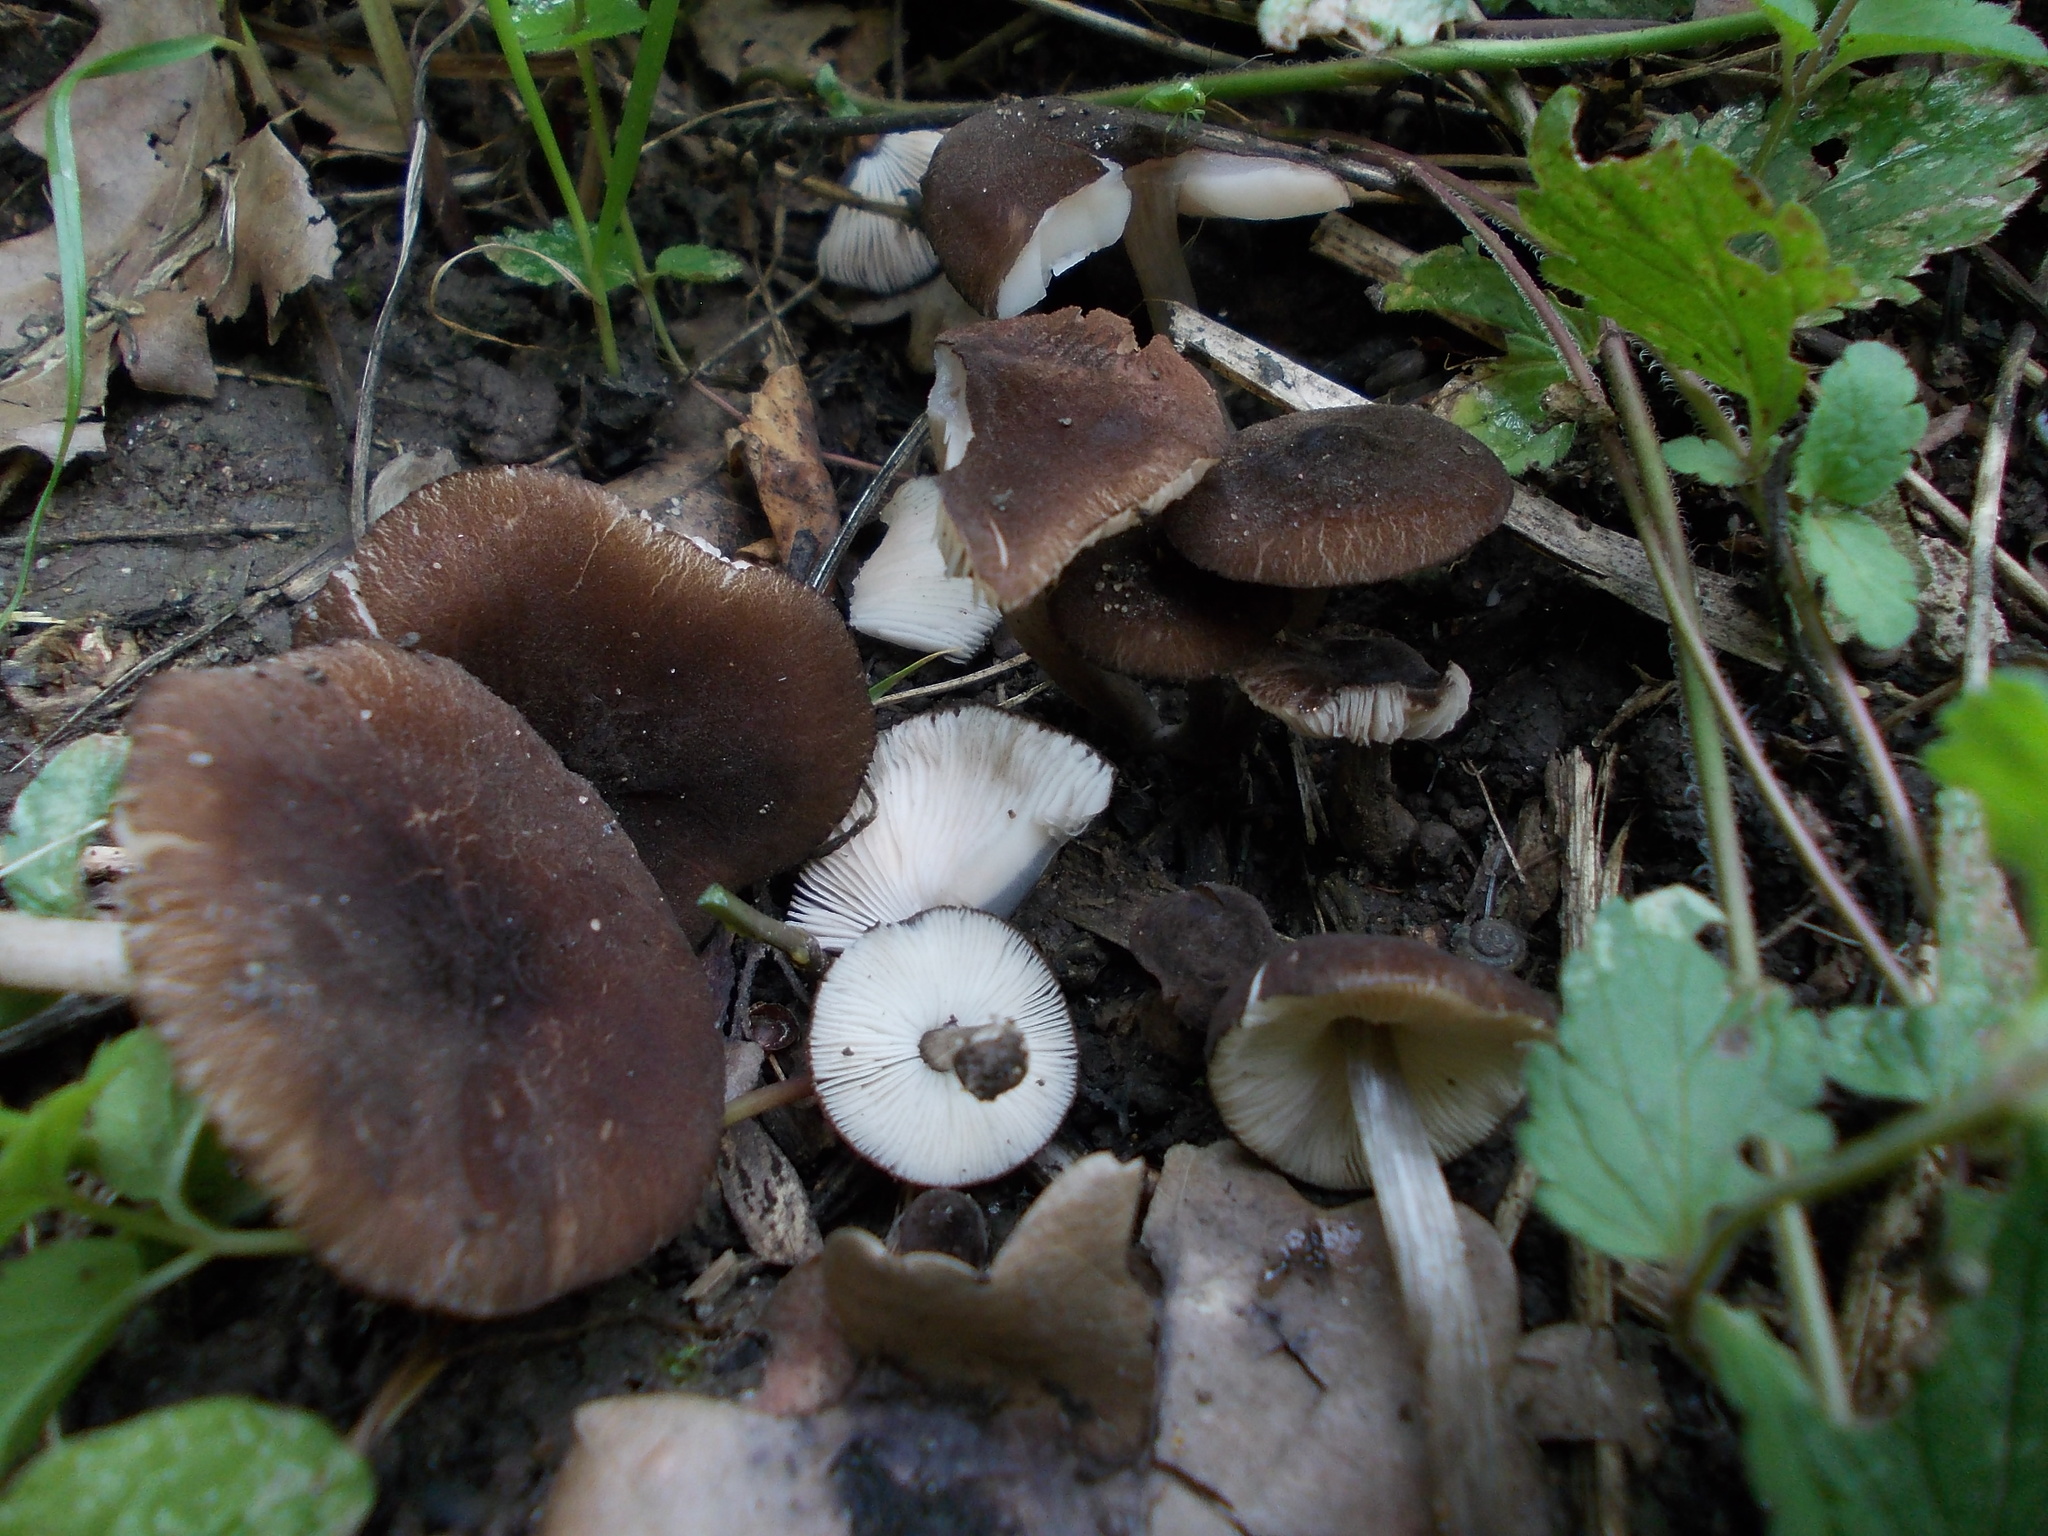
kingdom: Fungi
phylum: Basidiomycota
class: Agaricomycetes
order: Agaricales
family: Pluteaceae
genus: Pluteus
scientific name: Pluteus podospileus
